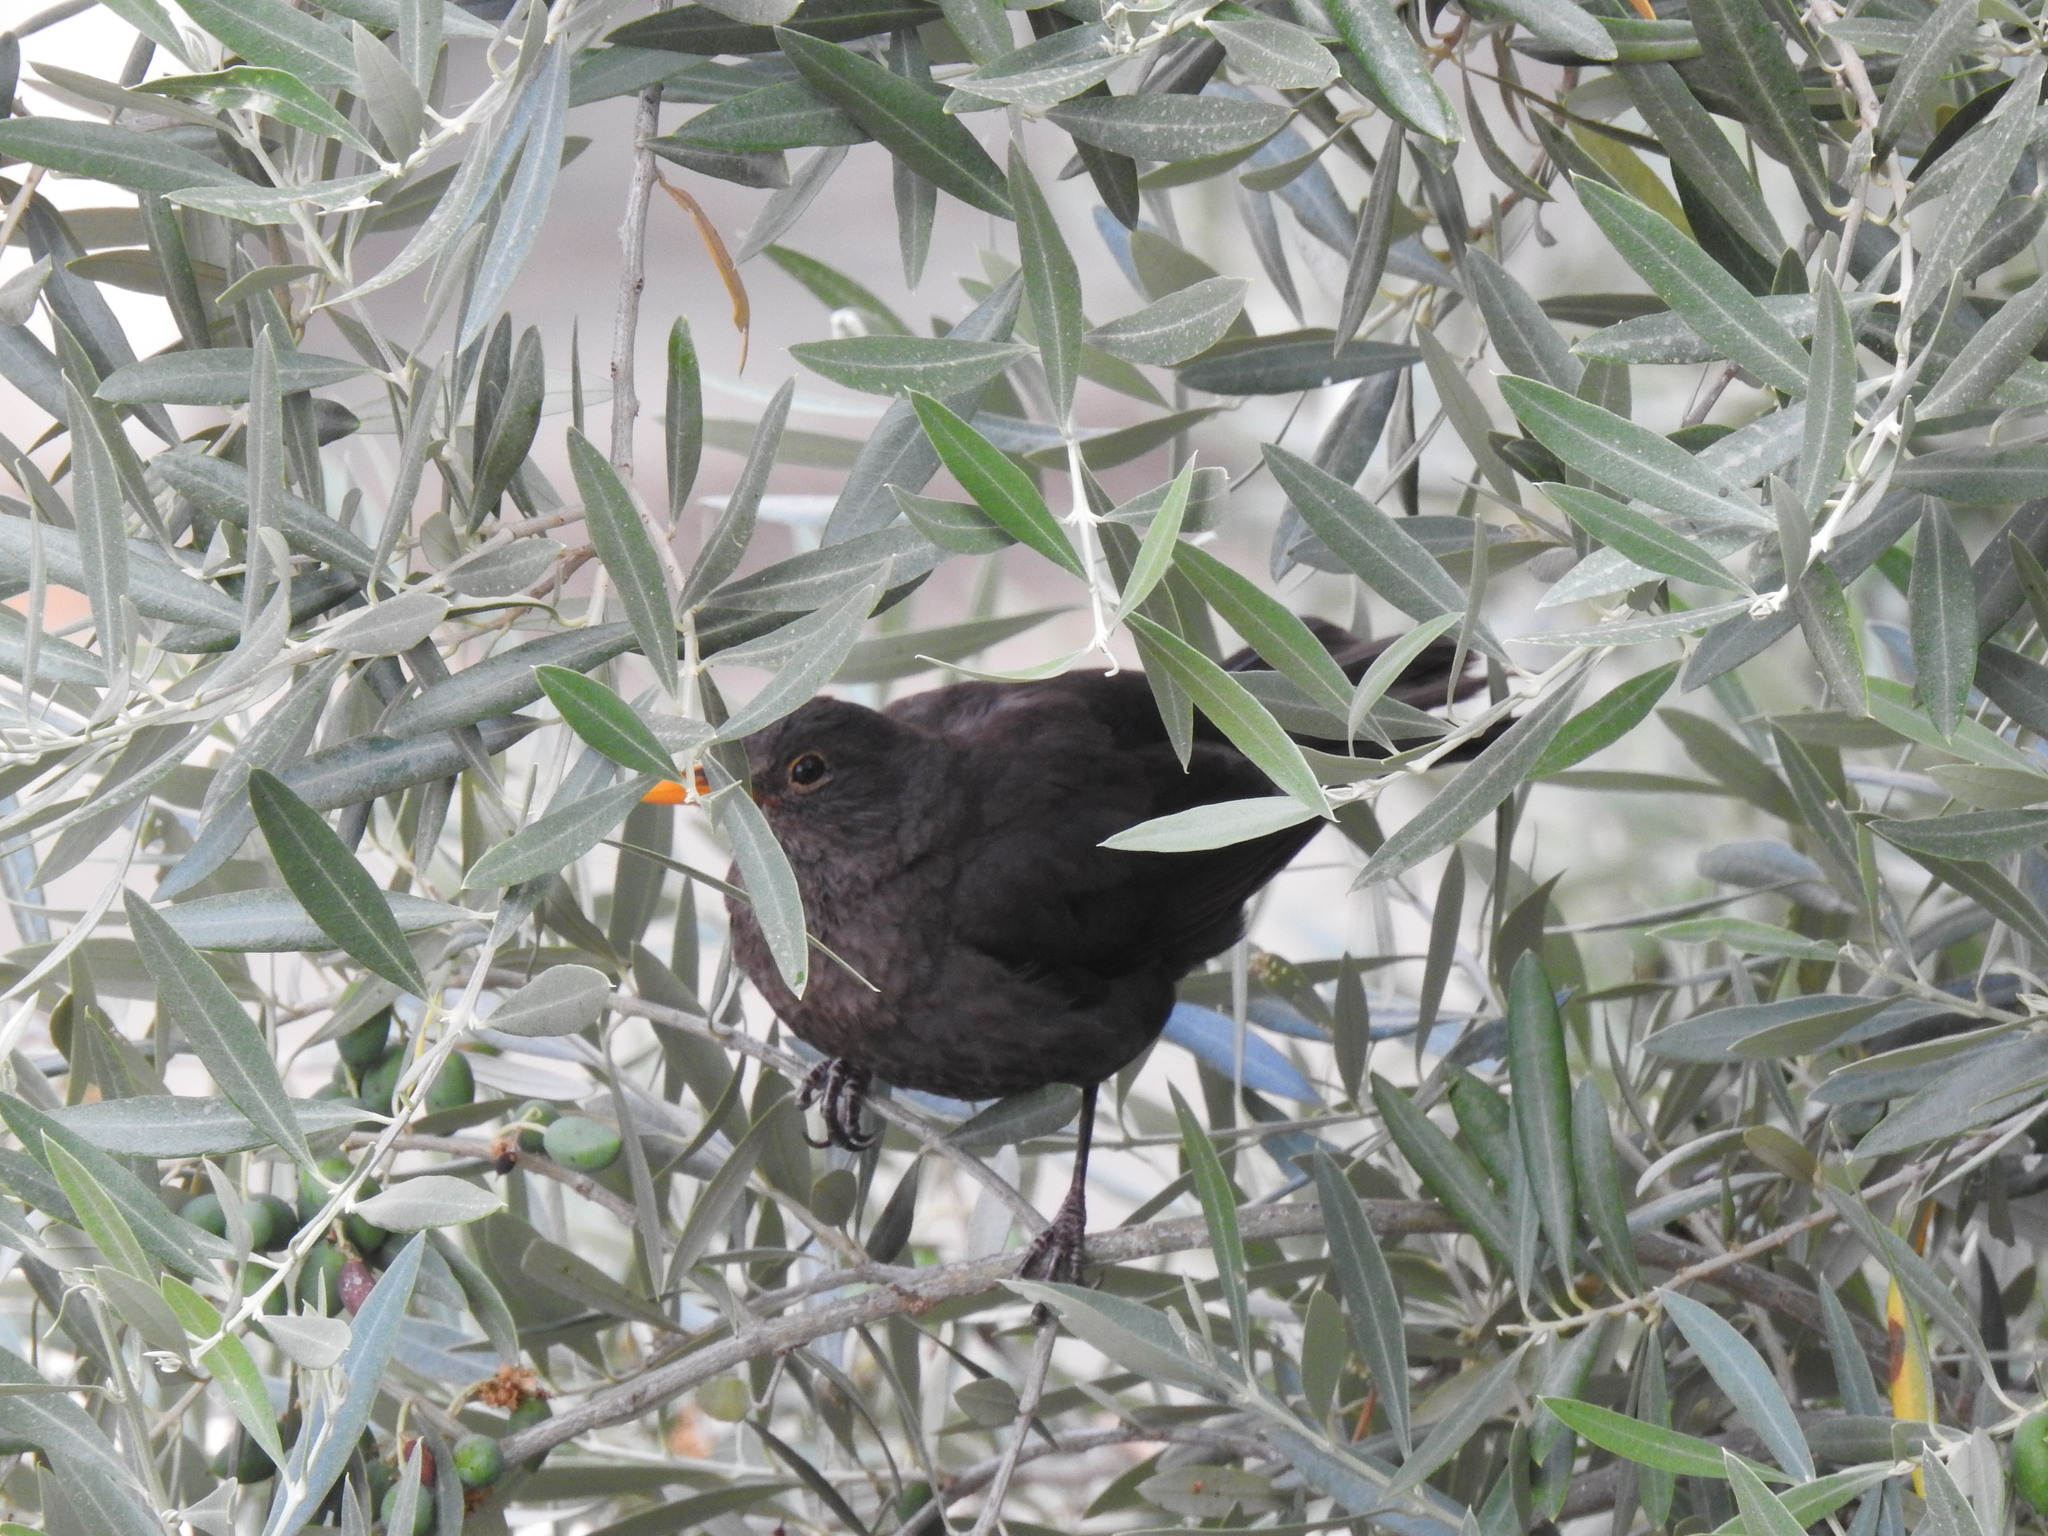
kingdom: Animalia
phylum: Chordata
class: Aves
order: Passeriformes
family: Turdidae
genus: Turdus
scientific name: Turdus merula
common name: Common blackbird
